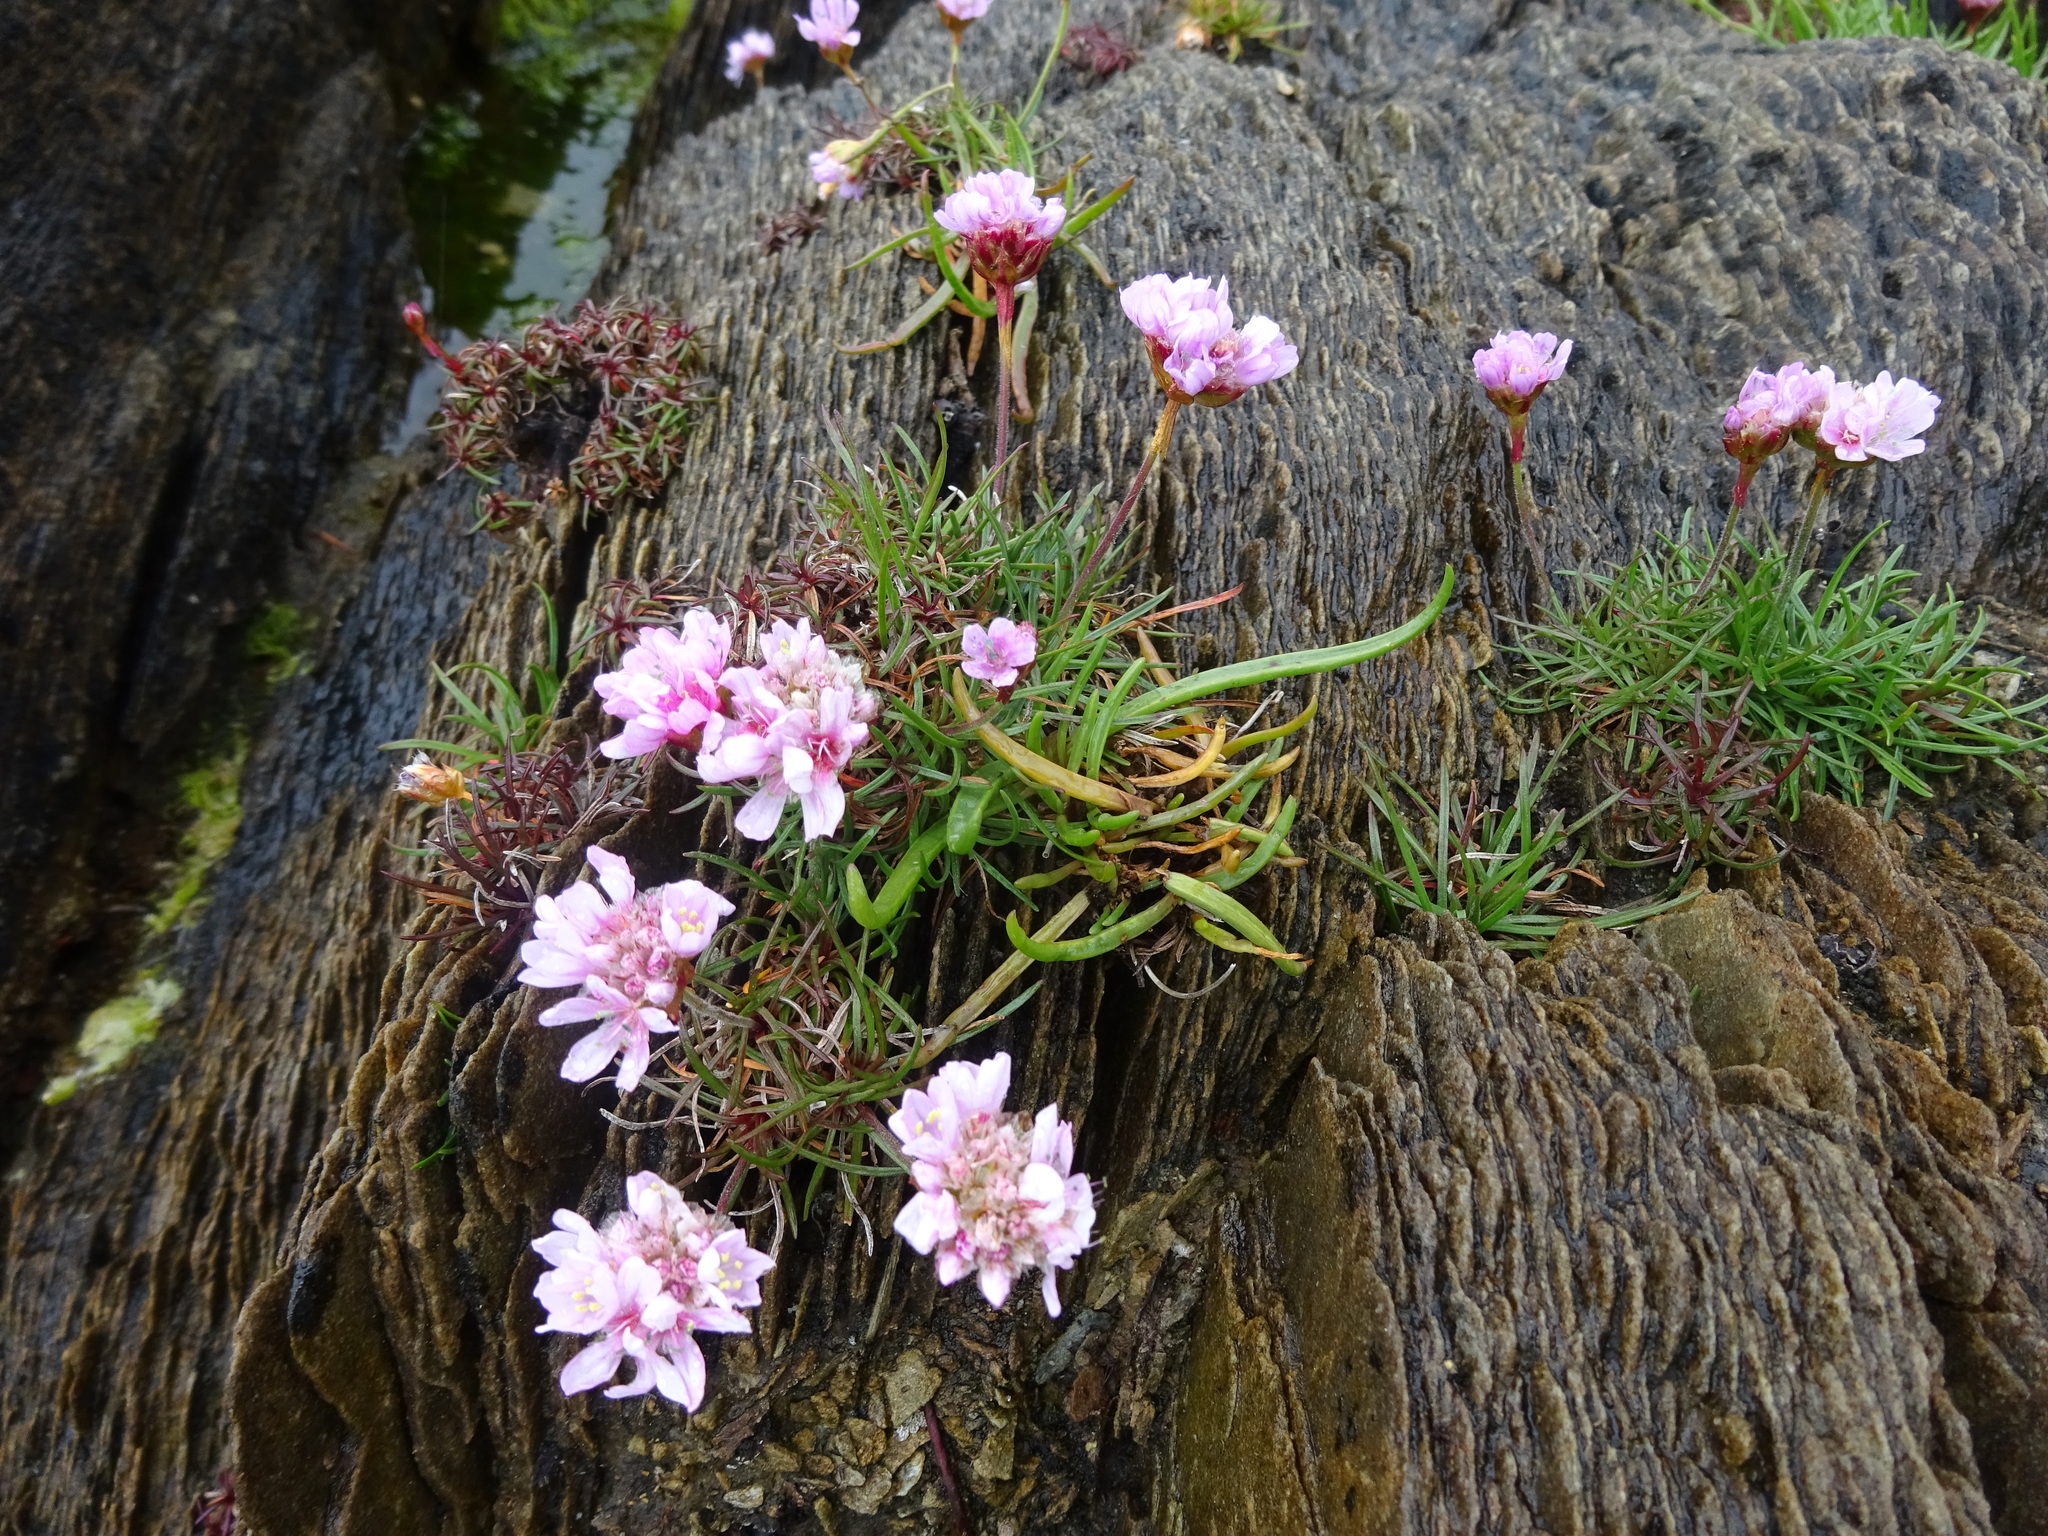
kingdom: Plantae
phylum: Tracheophyta
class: Magnoliopsida
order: Caryophyllales
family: Plumbaginaceae
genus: Armeria
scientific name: Armeria maritima
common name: Thrift
